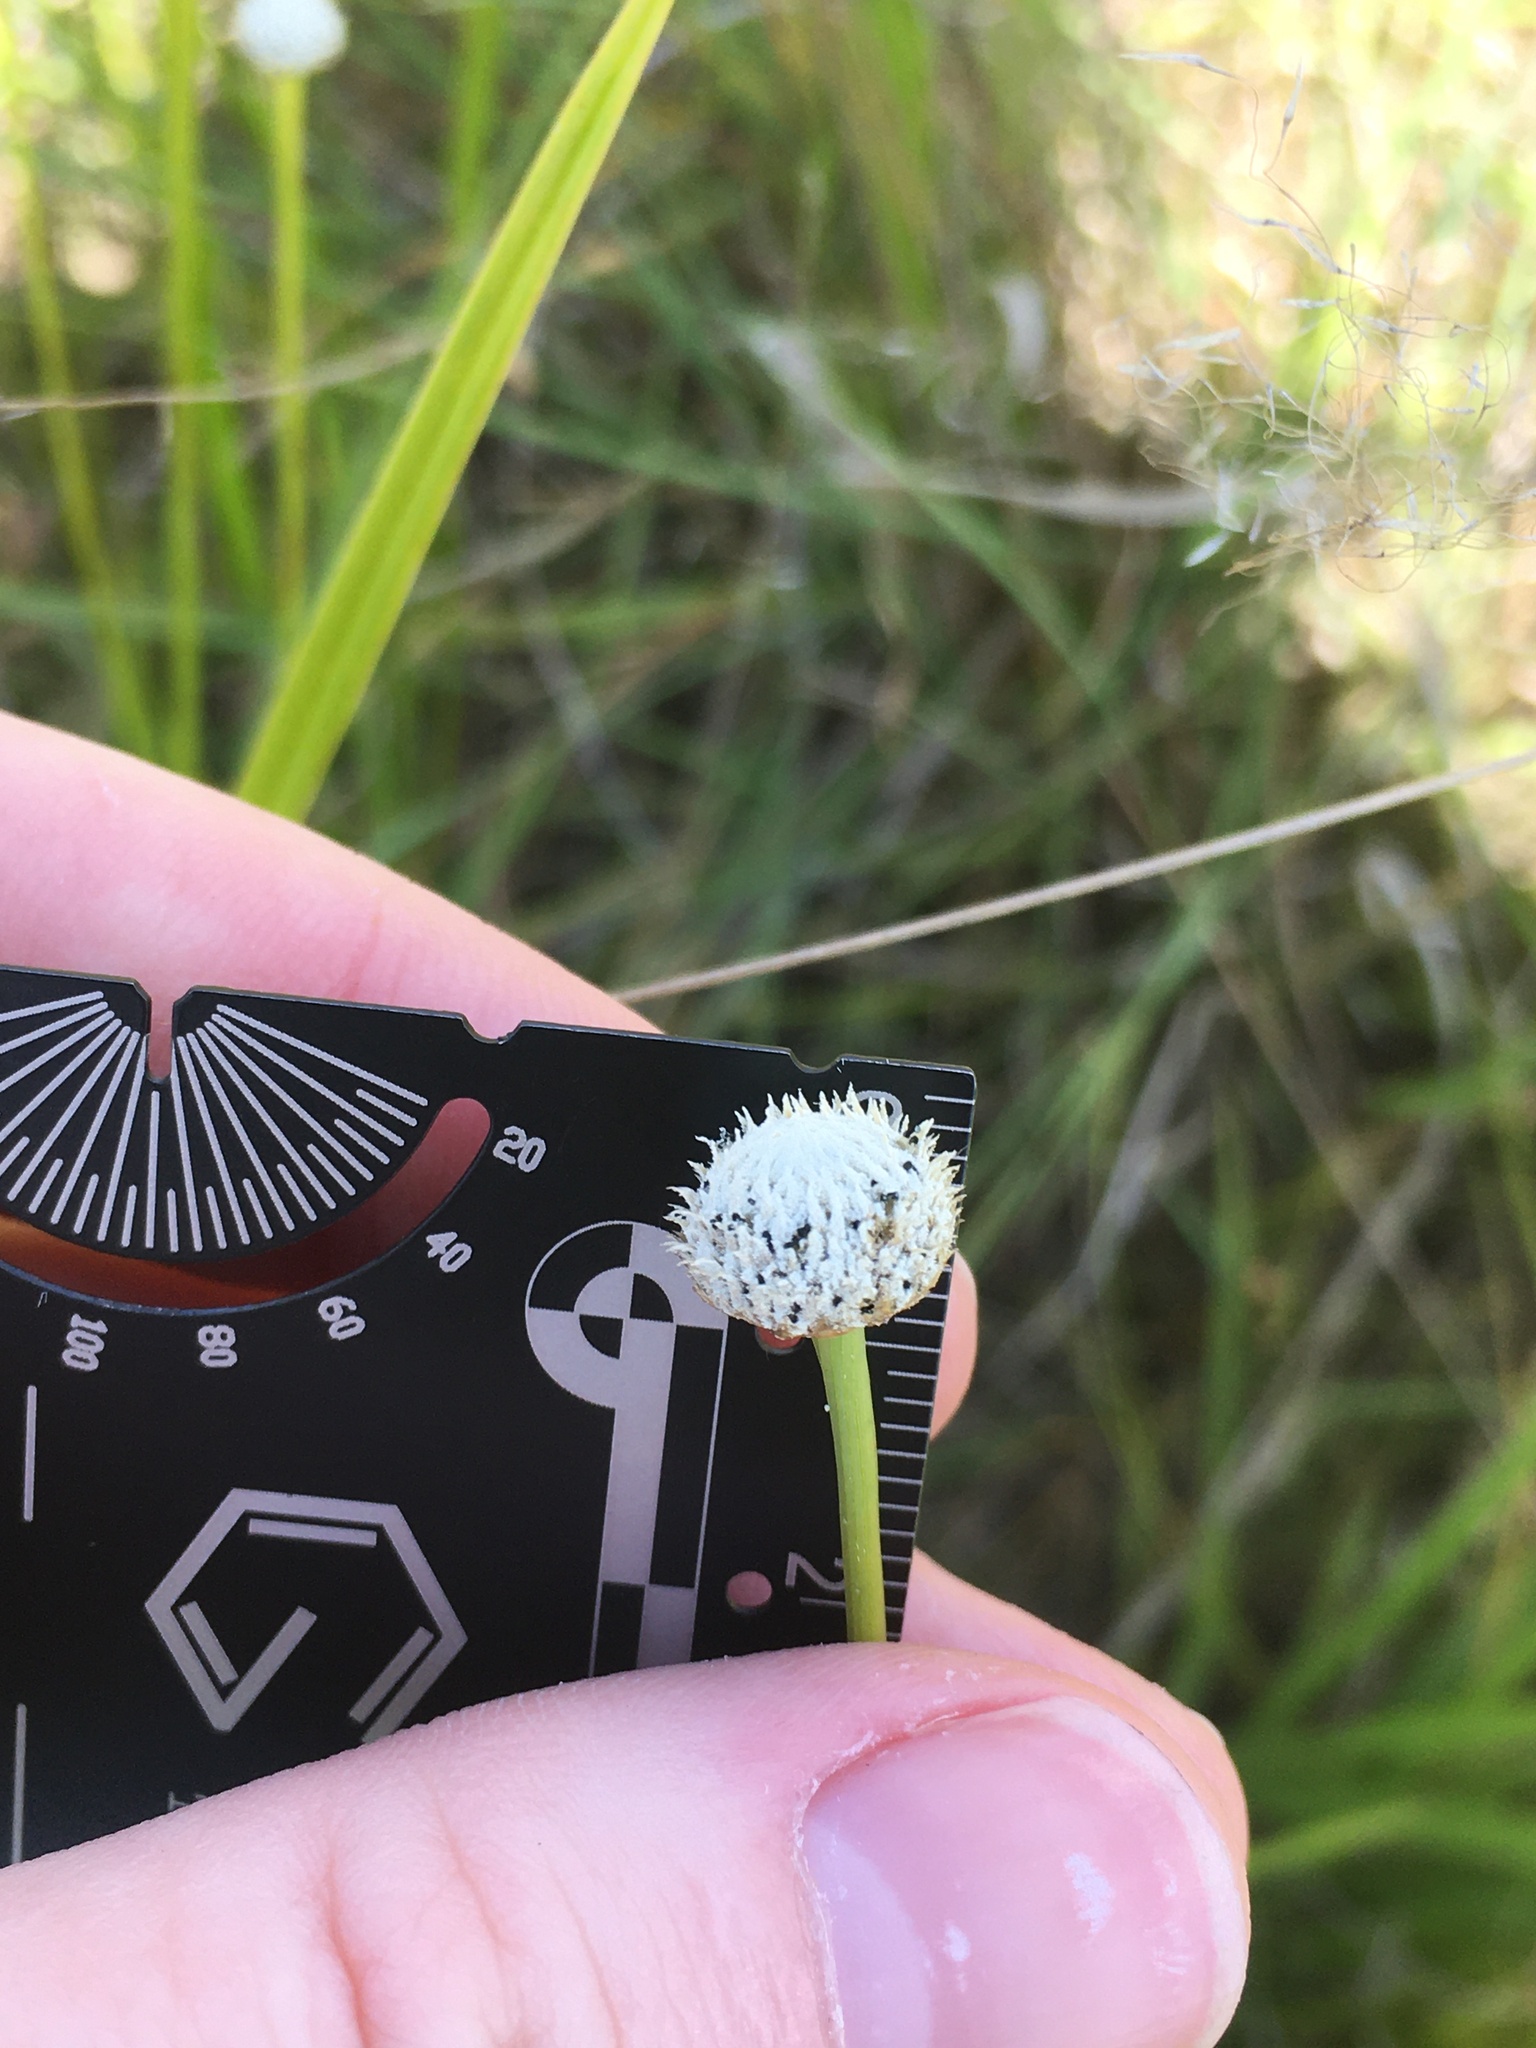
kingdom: Plantae
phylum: Tracheophyta
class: Liliopsida
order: Poales
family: Eriocaulaceae
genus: Eriocaulon
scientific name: Eriocaulon decangulare
